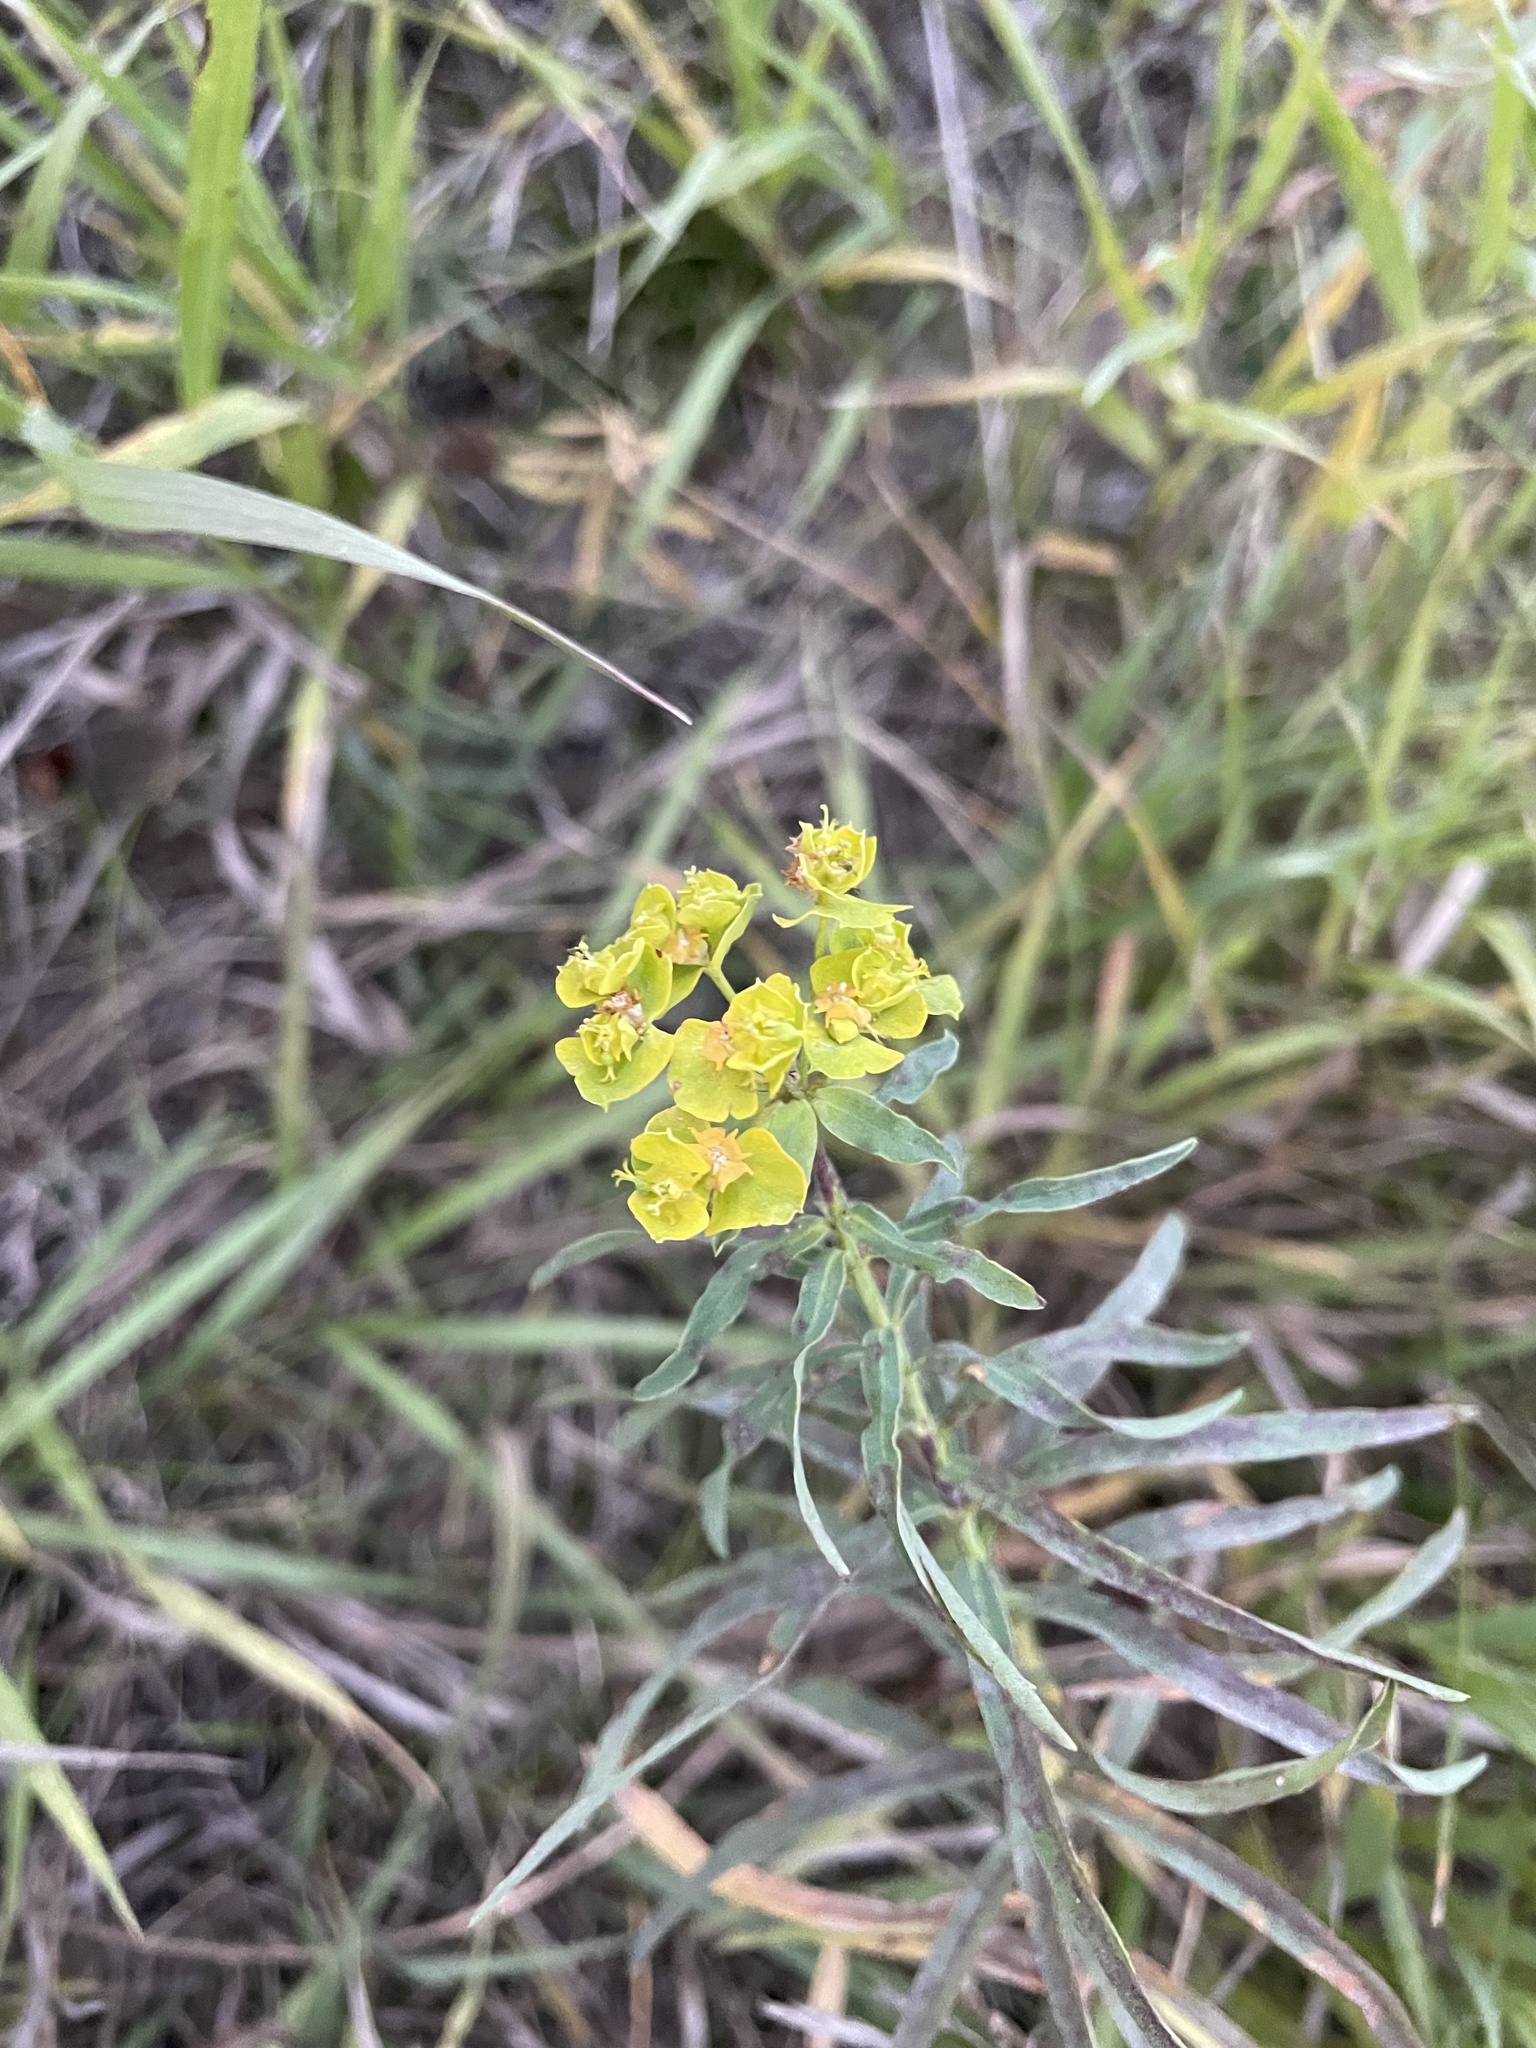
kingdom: Plantae
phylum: Tracheophyta
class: Magnoliopsida
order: Malpighiales
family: Euphorbiaceae
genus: Euphorbia
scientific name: Euphorbia virgata
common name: Leafy spurge
